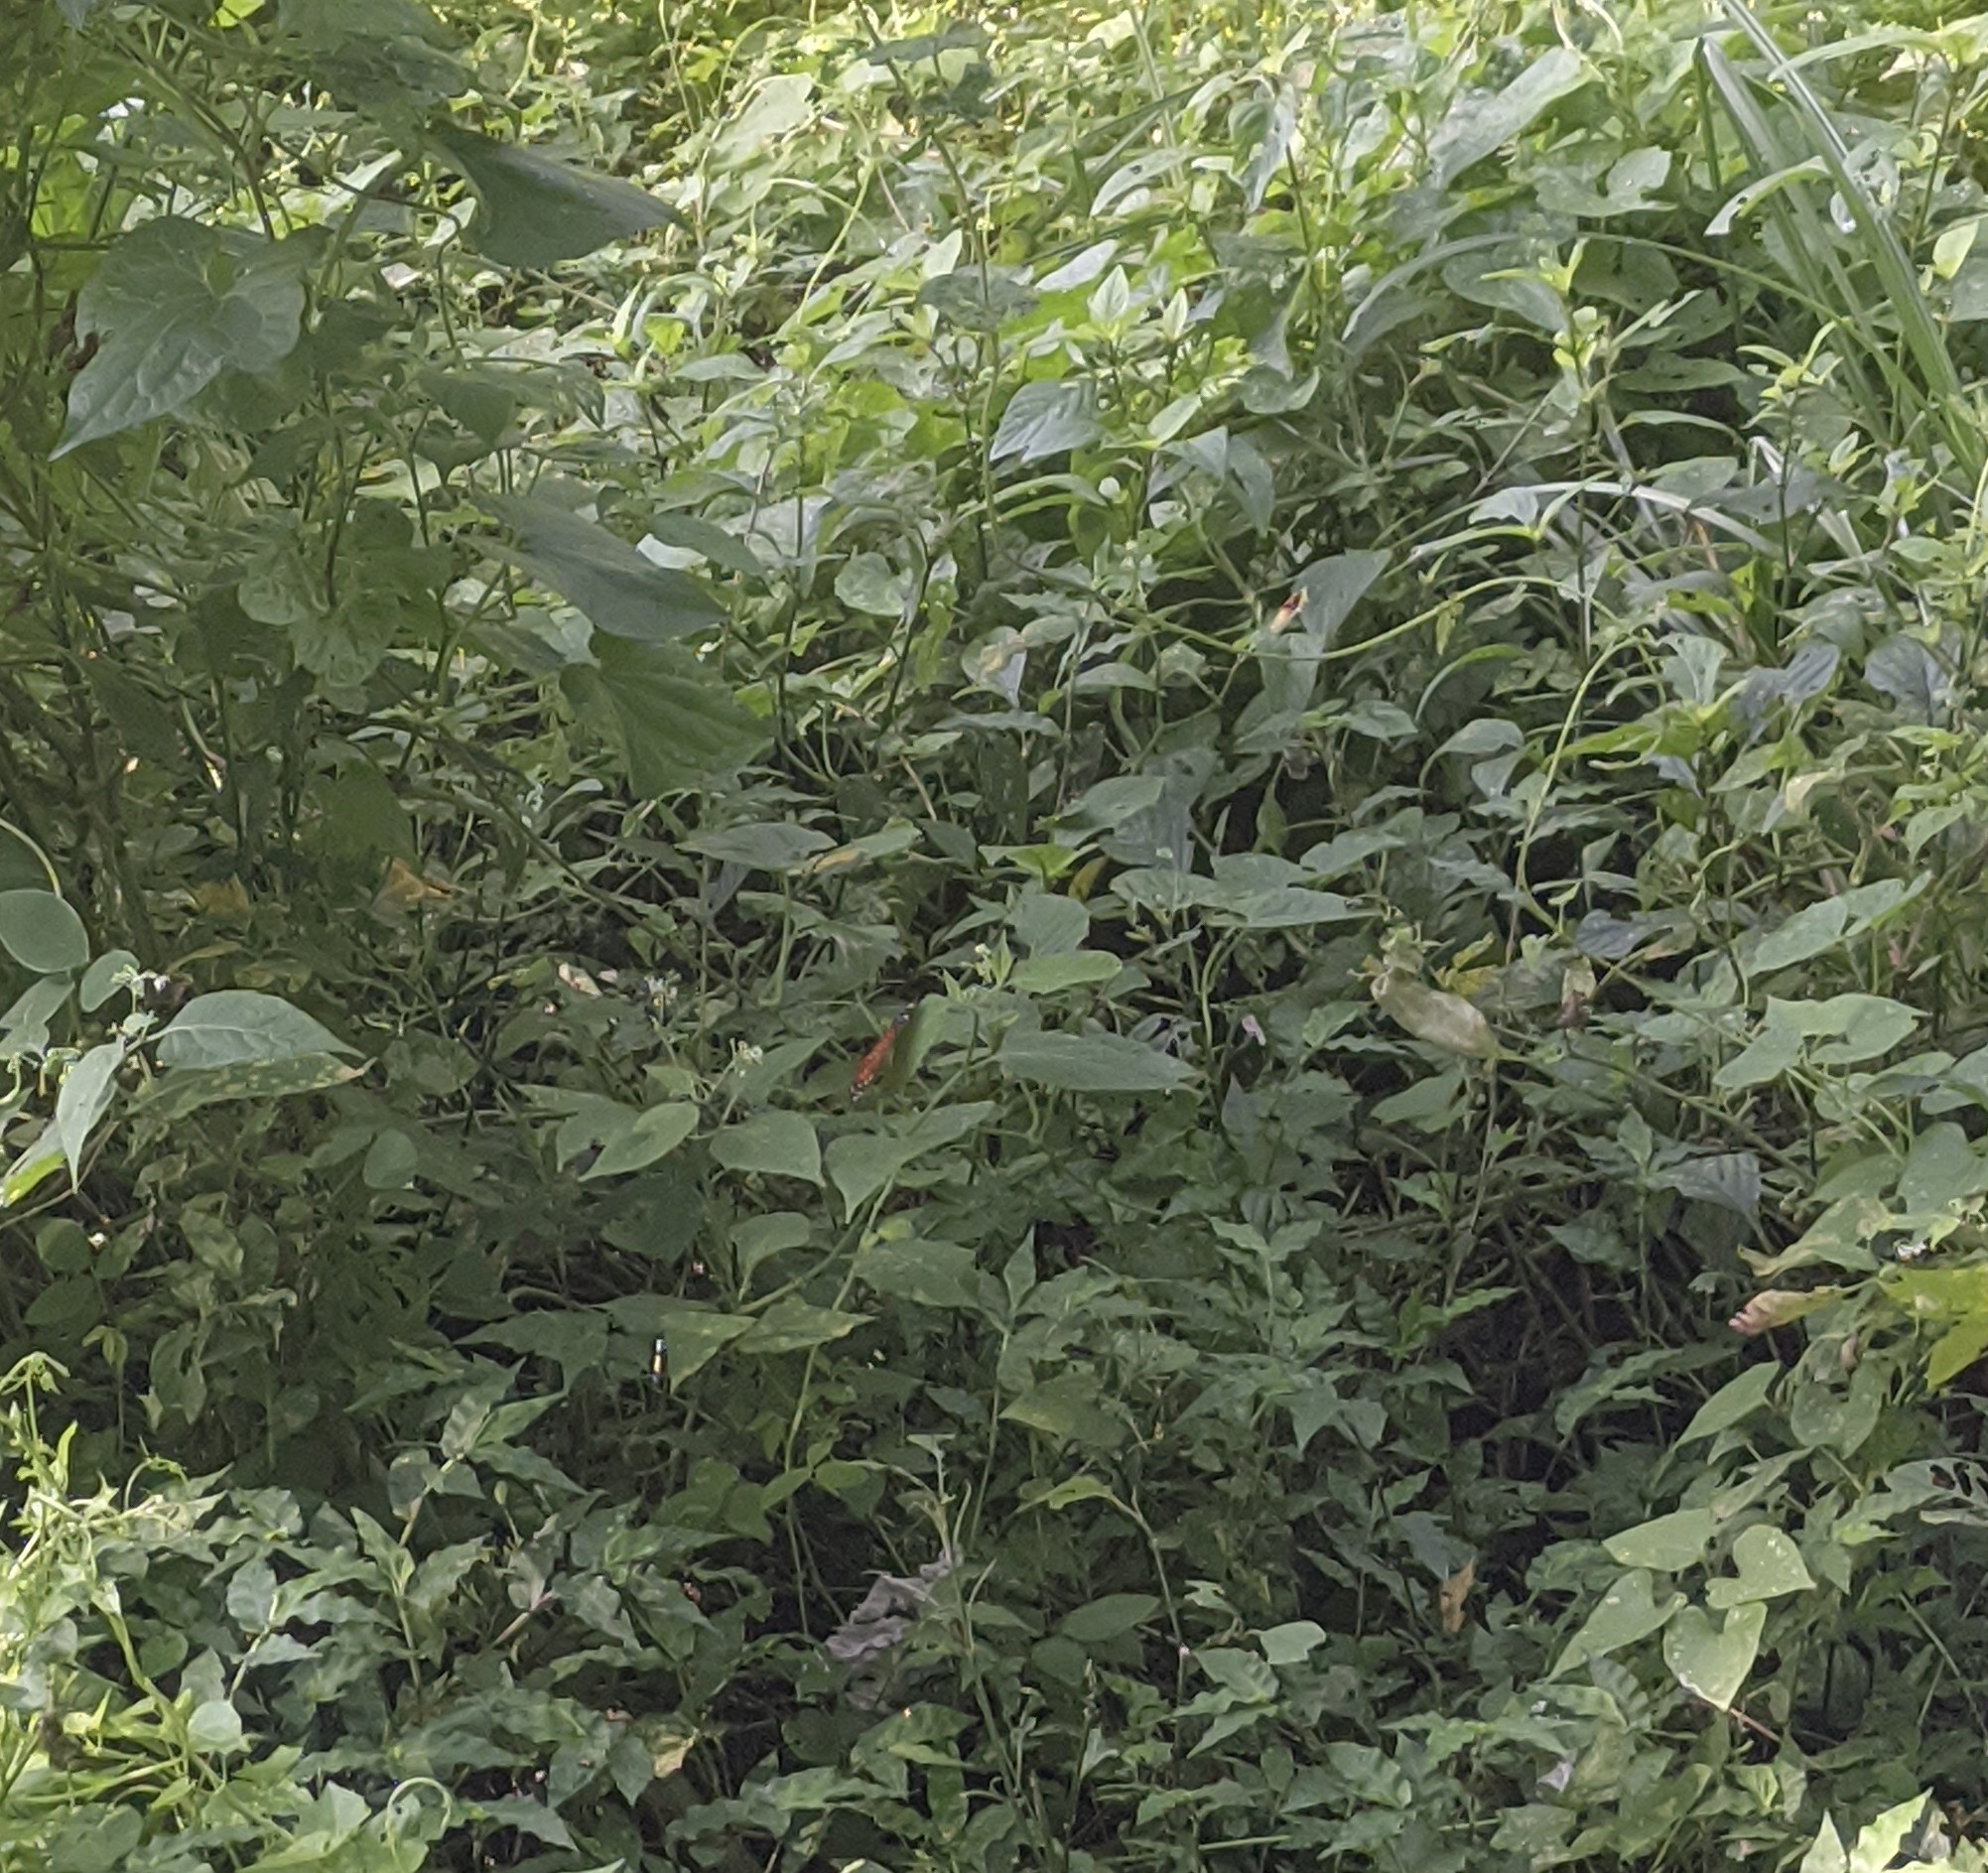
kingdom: Animalia
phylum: Arthropoda
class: Insecta
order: Lepidoptera
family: Nymphalidae
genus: Anartia
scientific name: Anartia amathea
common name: Red peacock
